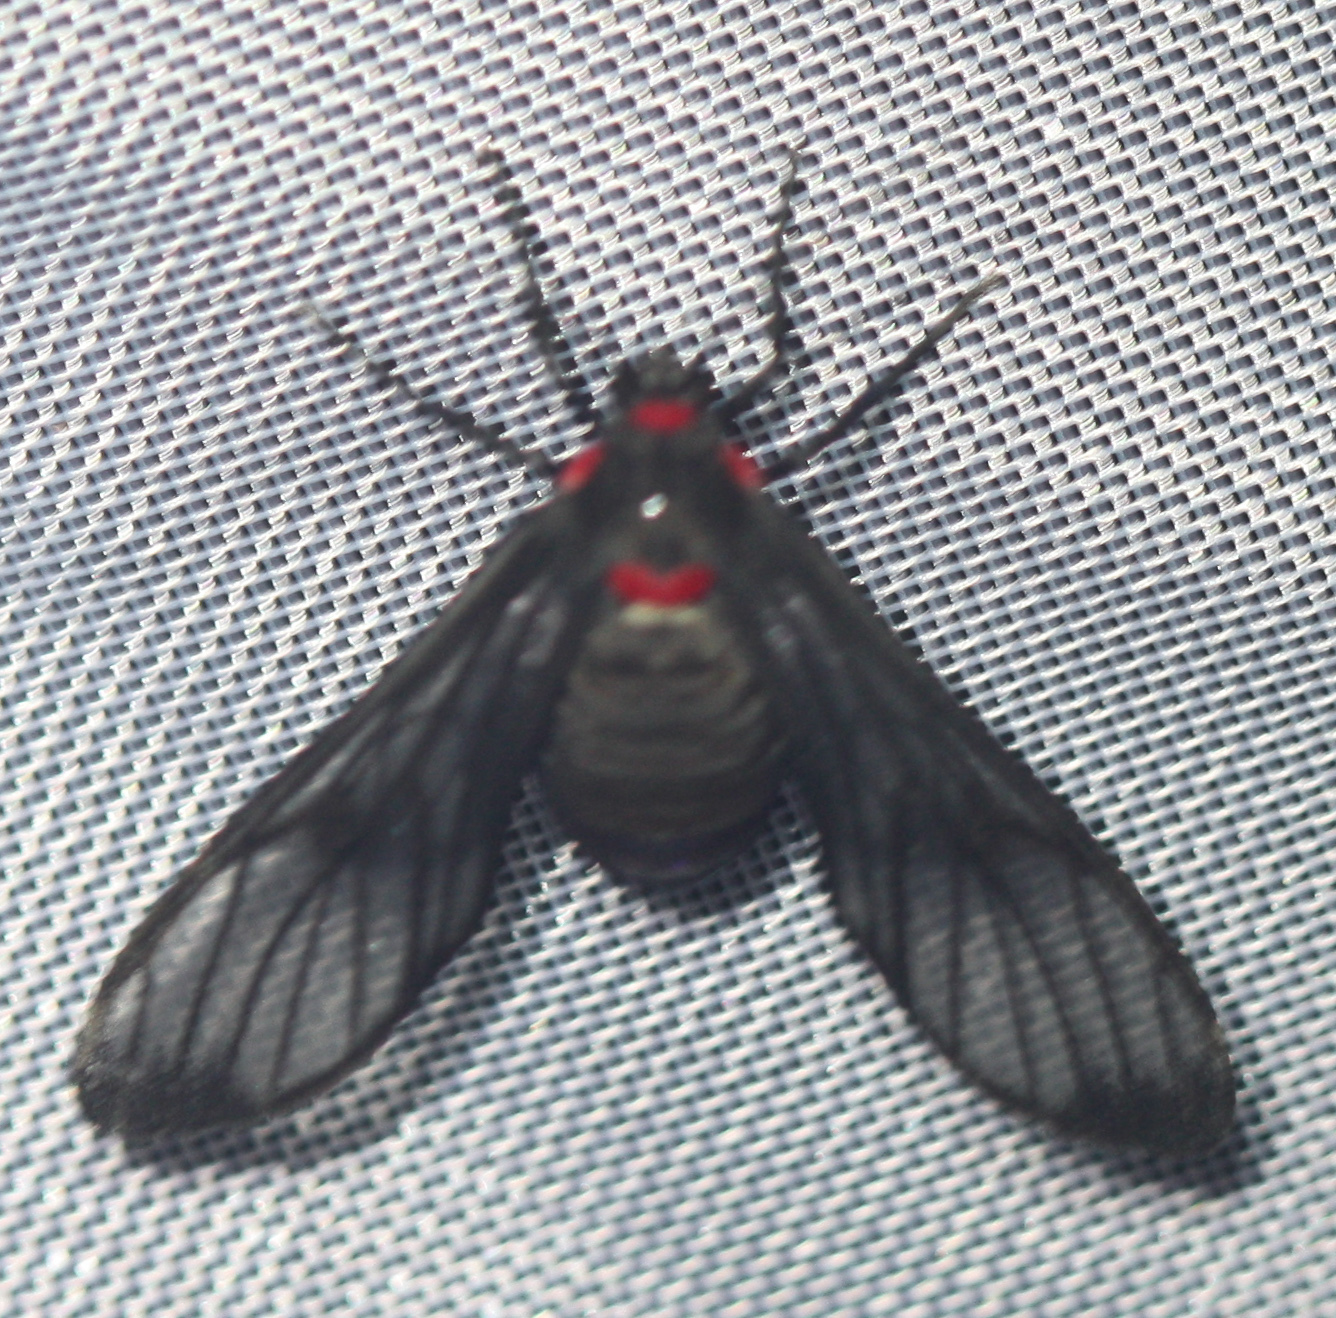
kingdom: Animalia
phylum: Arthropoda
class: Insecta
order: Lepidoptera
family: Erebidae
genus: Saurita
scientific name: Saurita phoenicosticta
